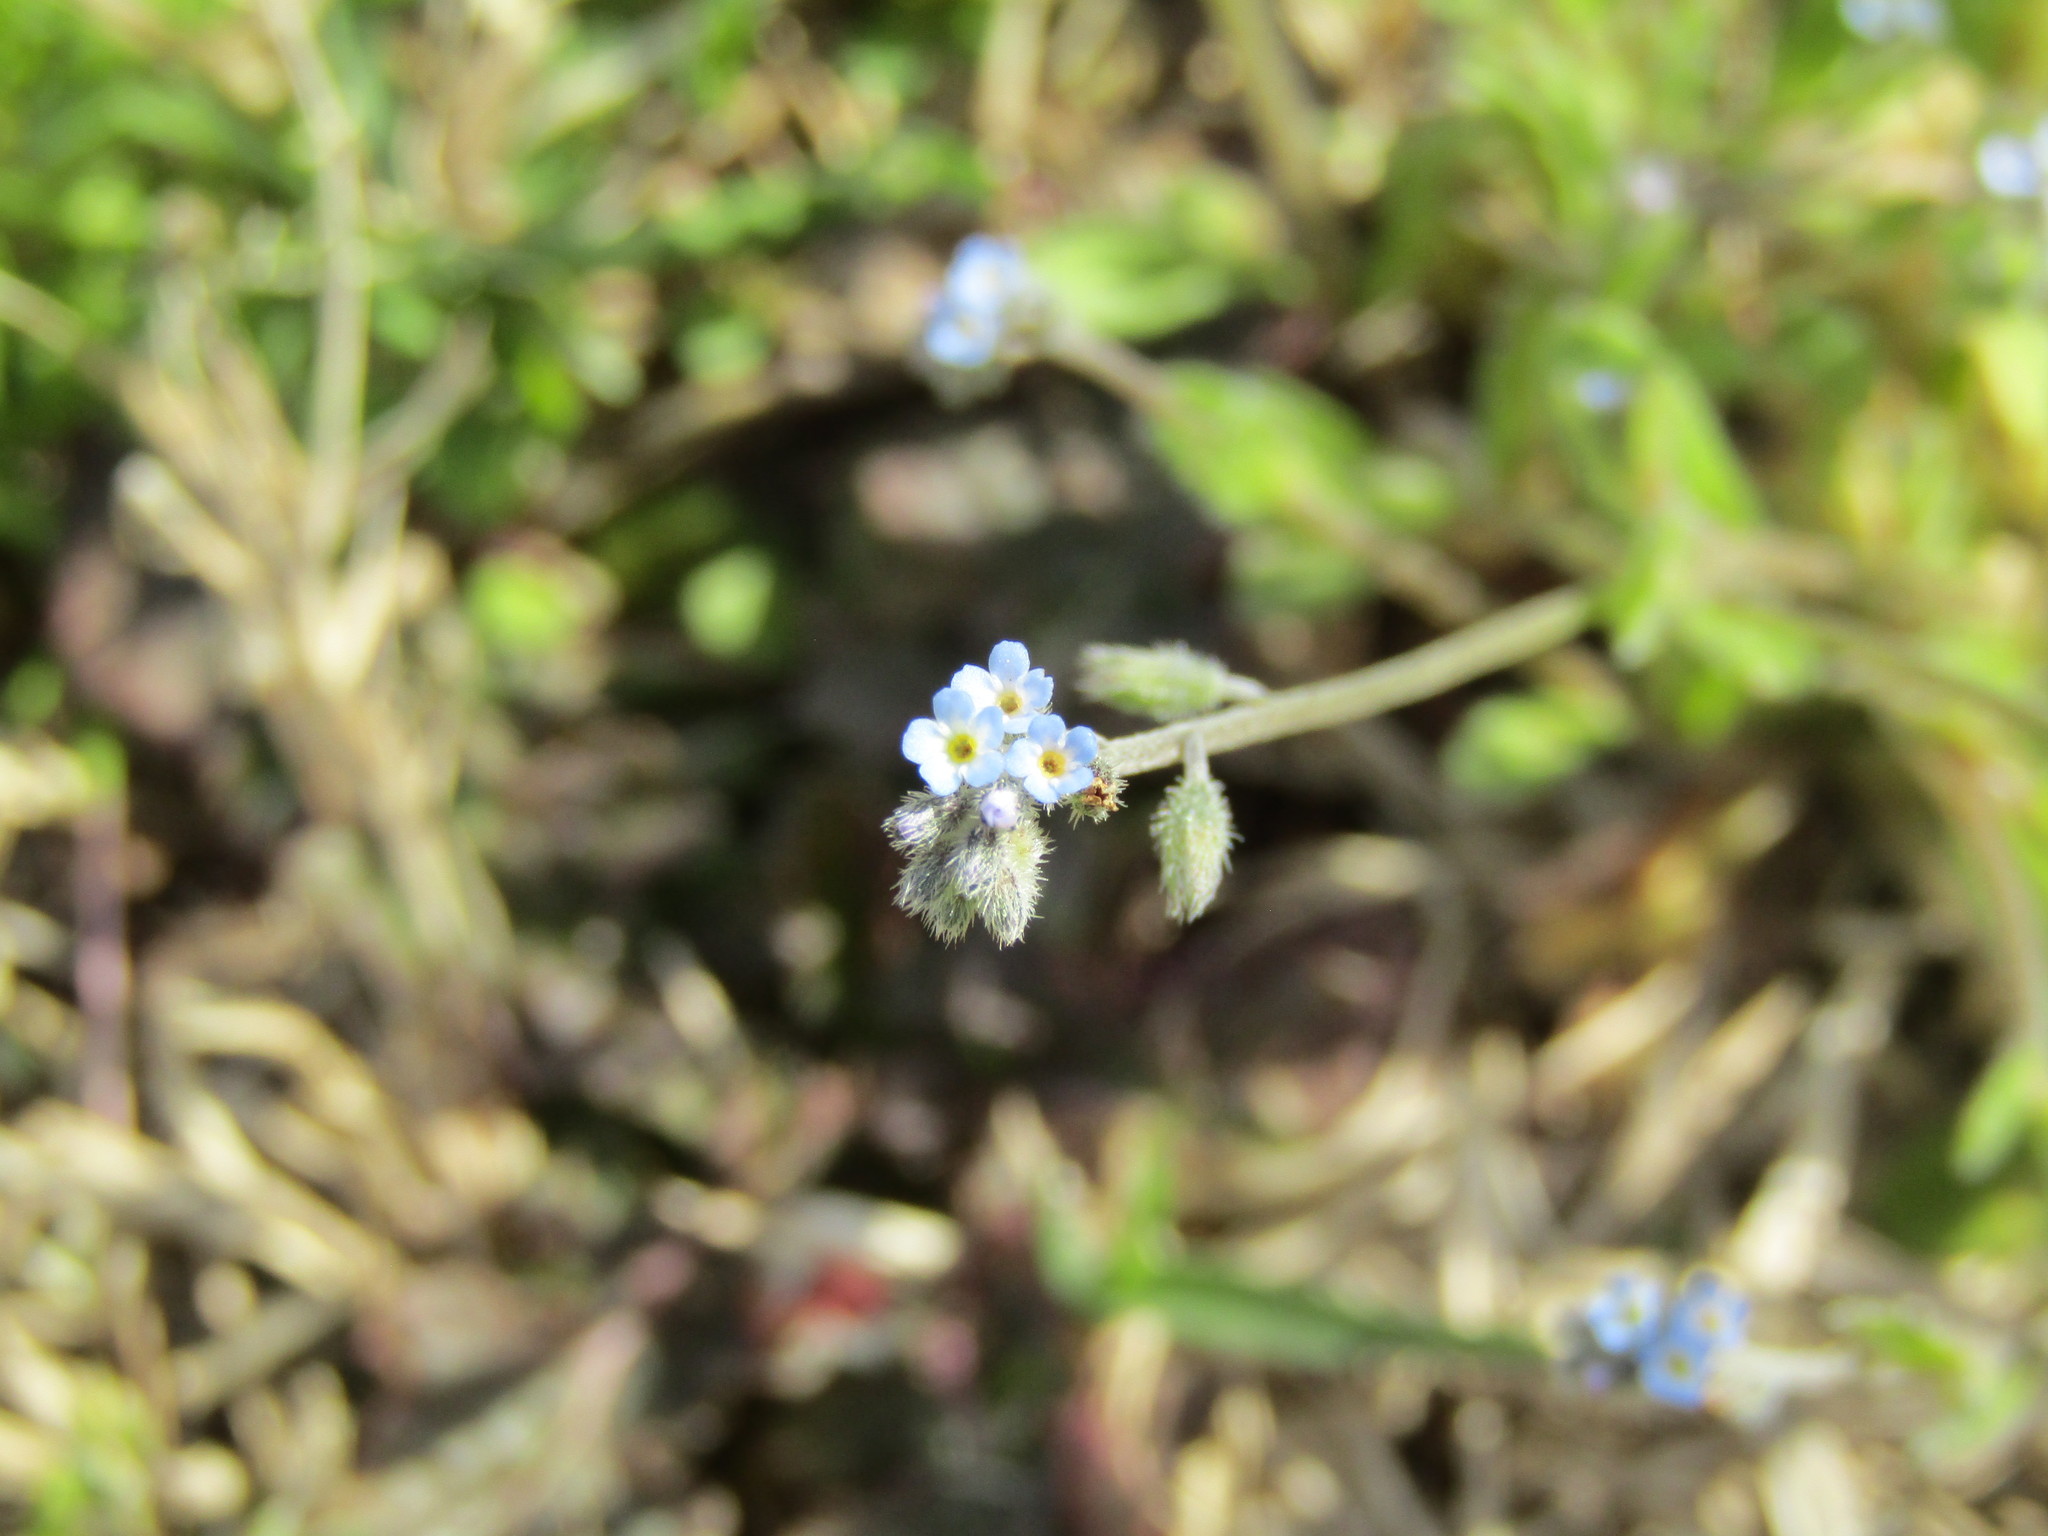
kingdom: Plantae
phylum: Tracheophyta
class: Magnoliopsida
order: Boraginales
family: Boraginaceae
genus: Myosotis
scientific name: Myosotis ramosissima
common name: Early forget-me-not
